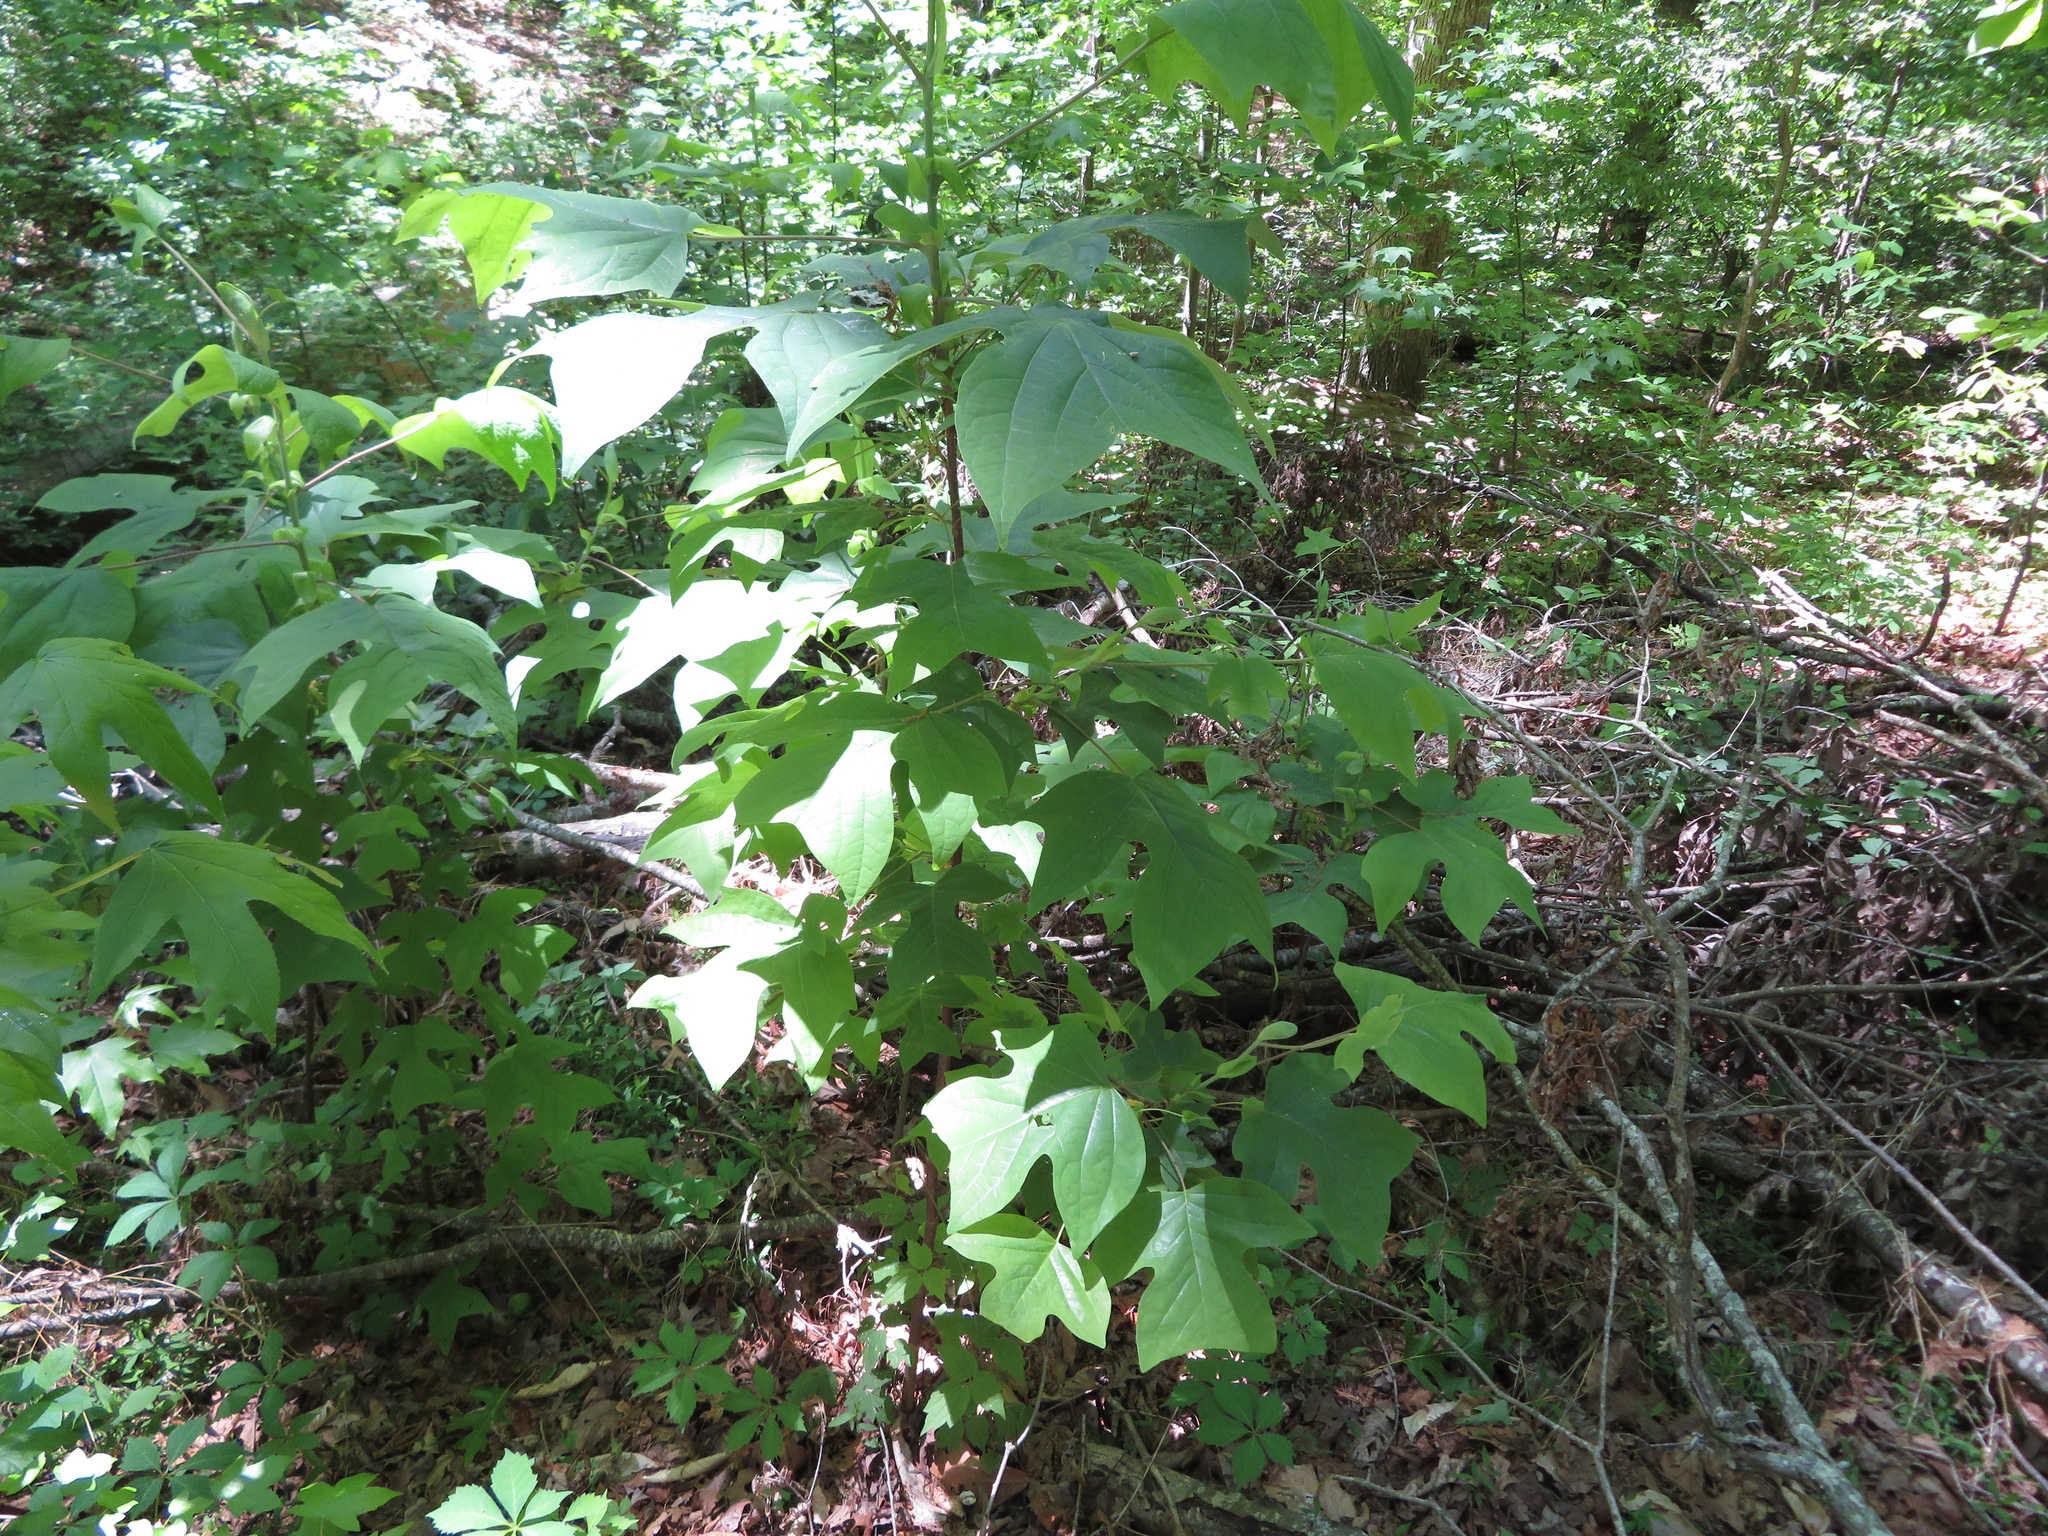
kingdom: Plantae
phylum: Tracheophyta
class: Magnoliopsida
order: Magnoliales
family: Magnoliaceae
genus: Liriodendron
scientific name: Liriodendron tulipifera
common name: Tulip tree
